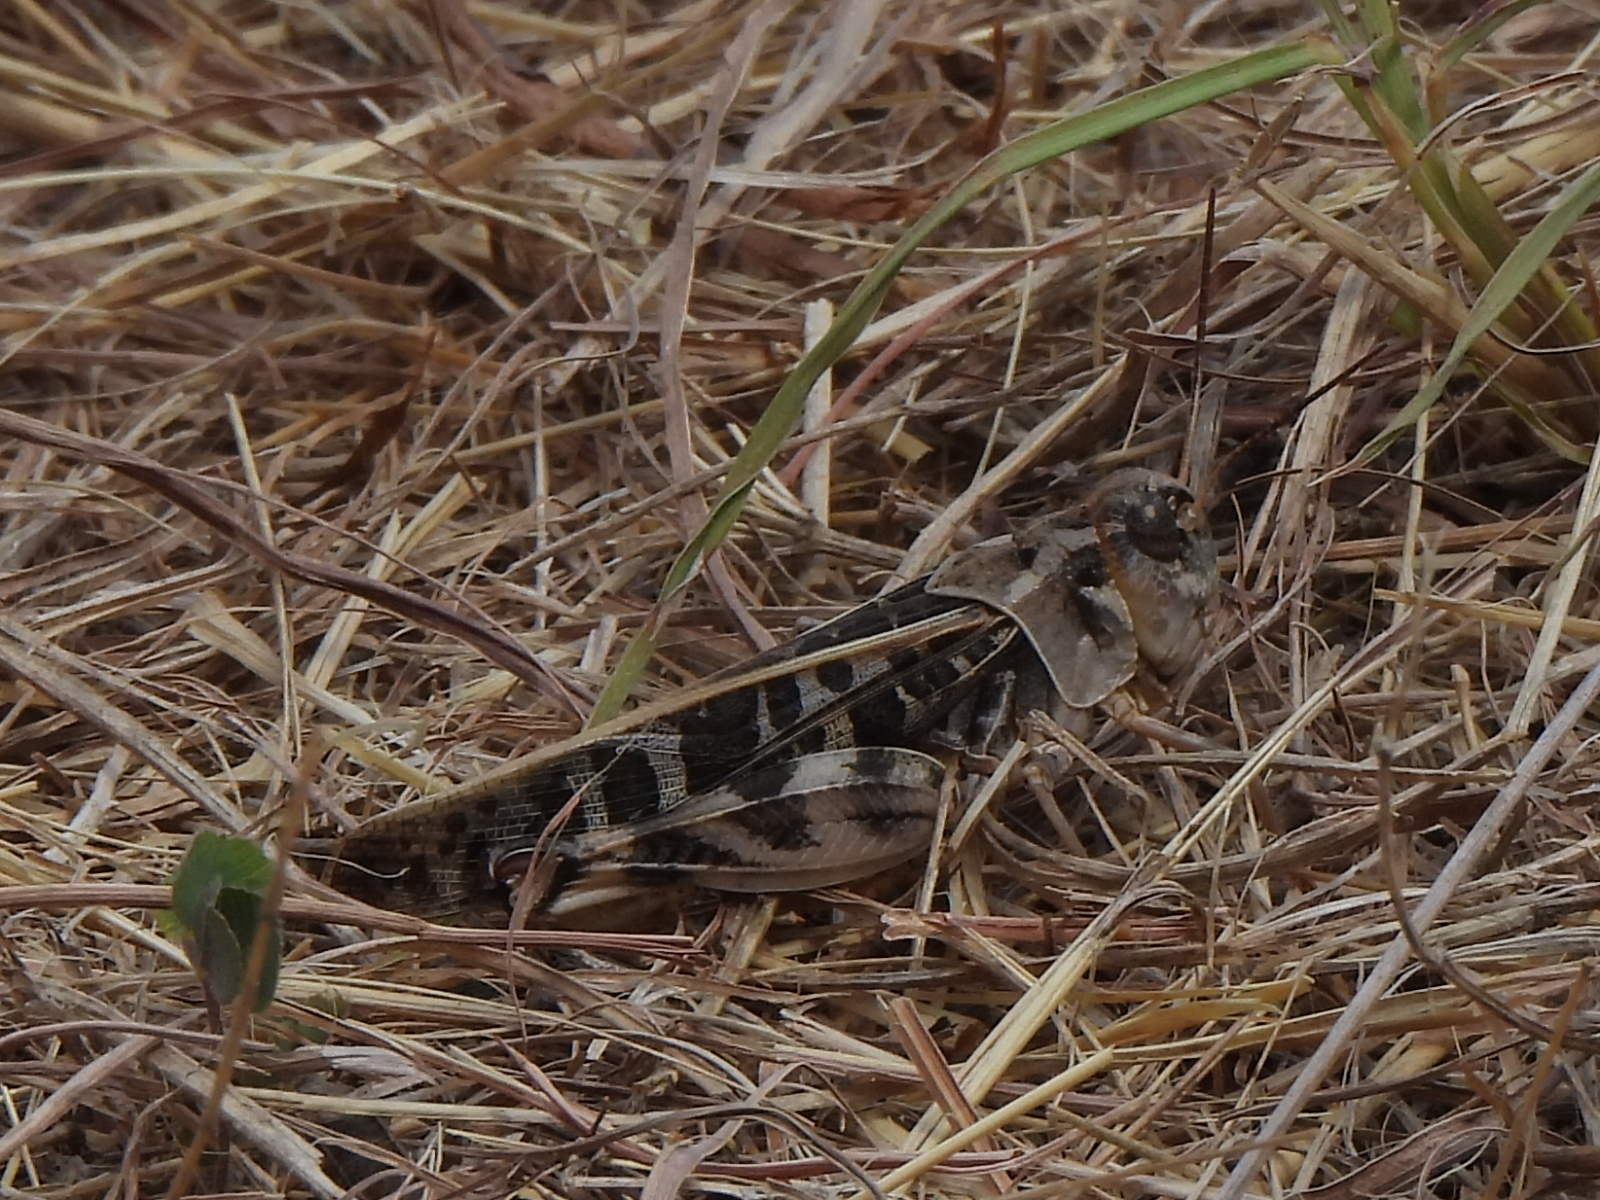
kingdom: Animalia
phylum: Arthropoda
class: Insecta
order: Orthoptera
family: Acrididae
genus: Hippiscus
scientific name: Hippiscus ocelote
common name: Wrinkled grasshopper
